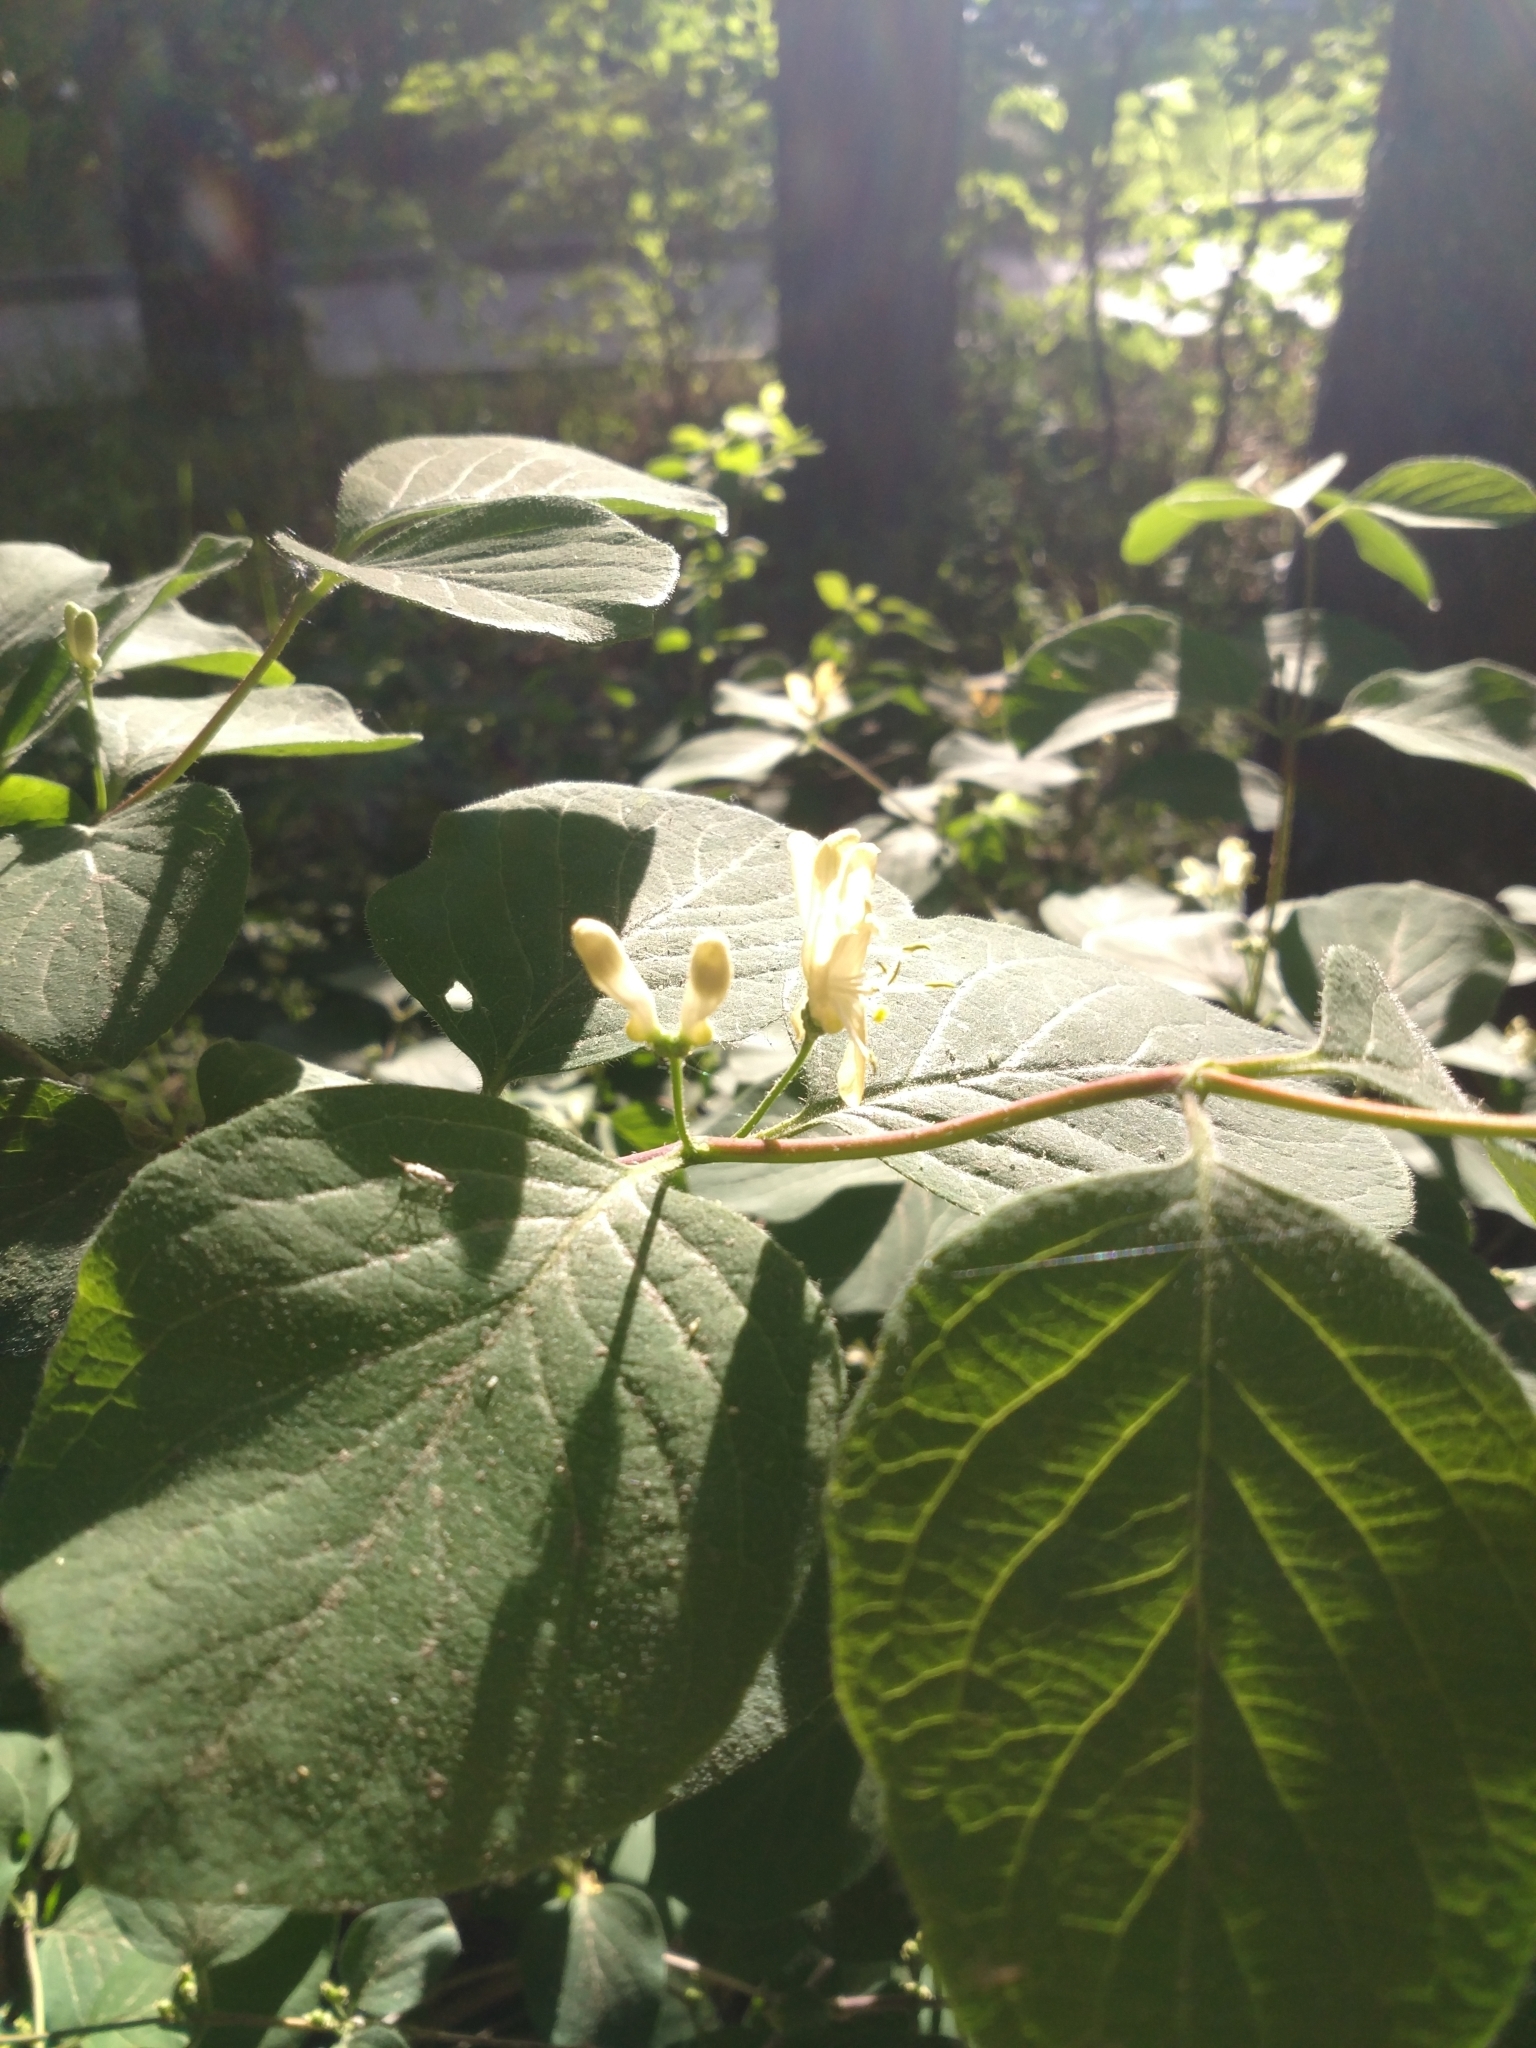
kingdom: Plantae
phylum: Tracheophyta
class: Magnoliopsida
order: Dipsacales
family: Caprifoliaceae
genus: Lonicera
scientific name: Lonicera xylosteum
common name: Fly honeysuckle
